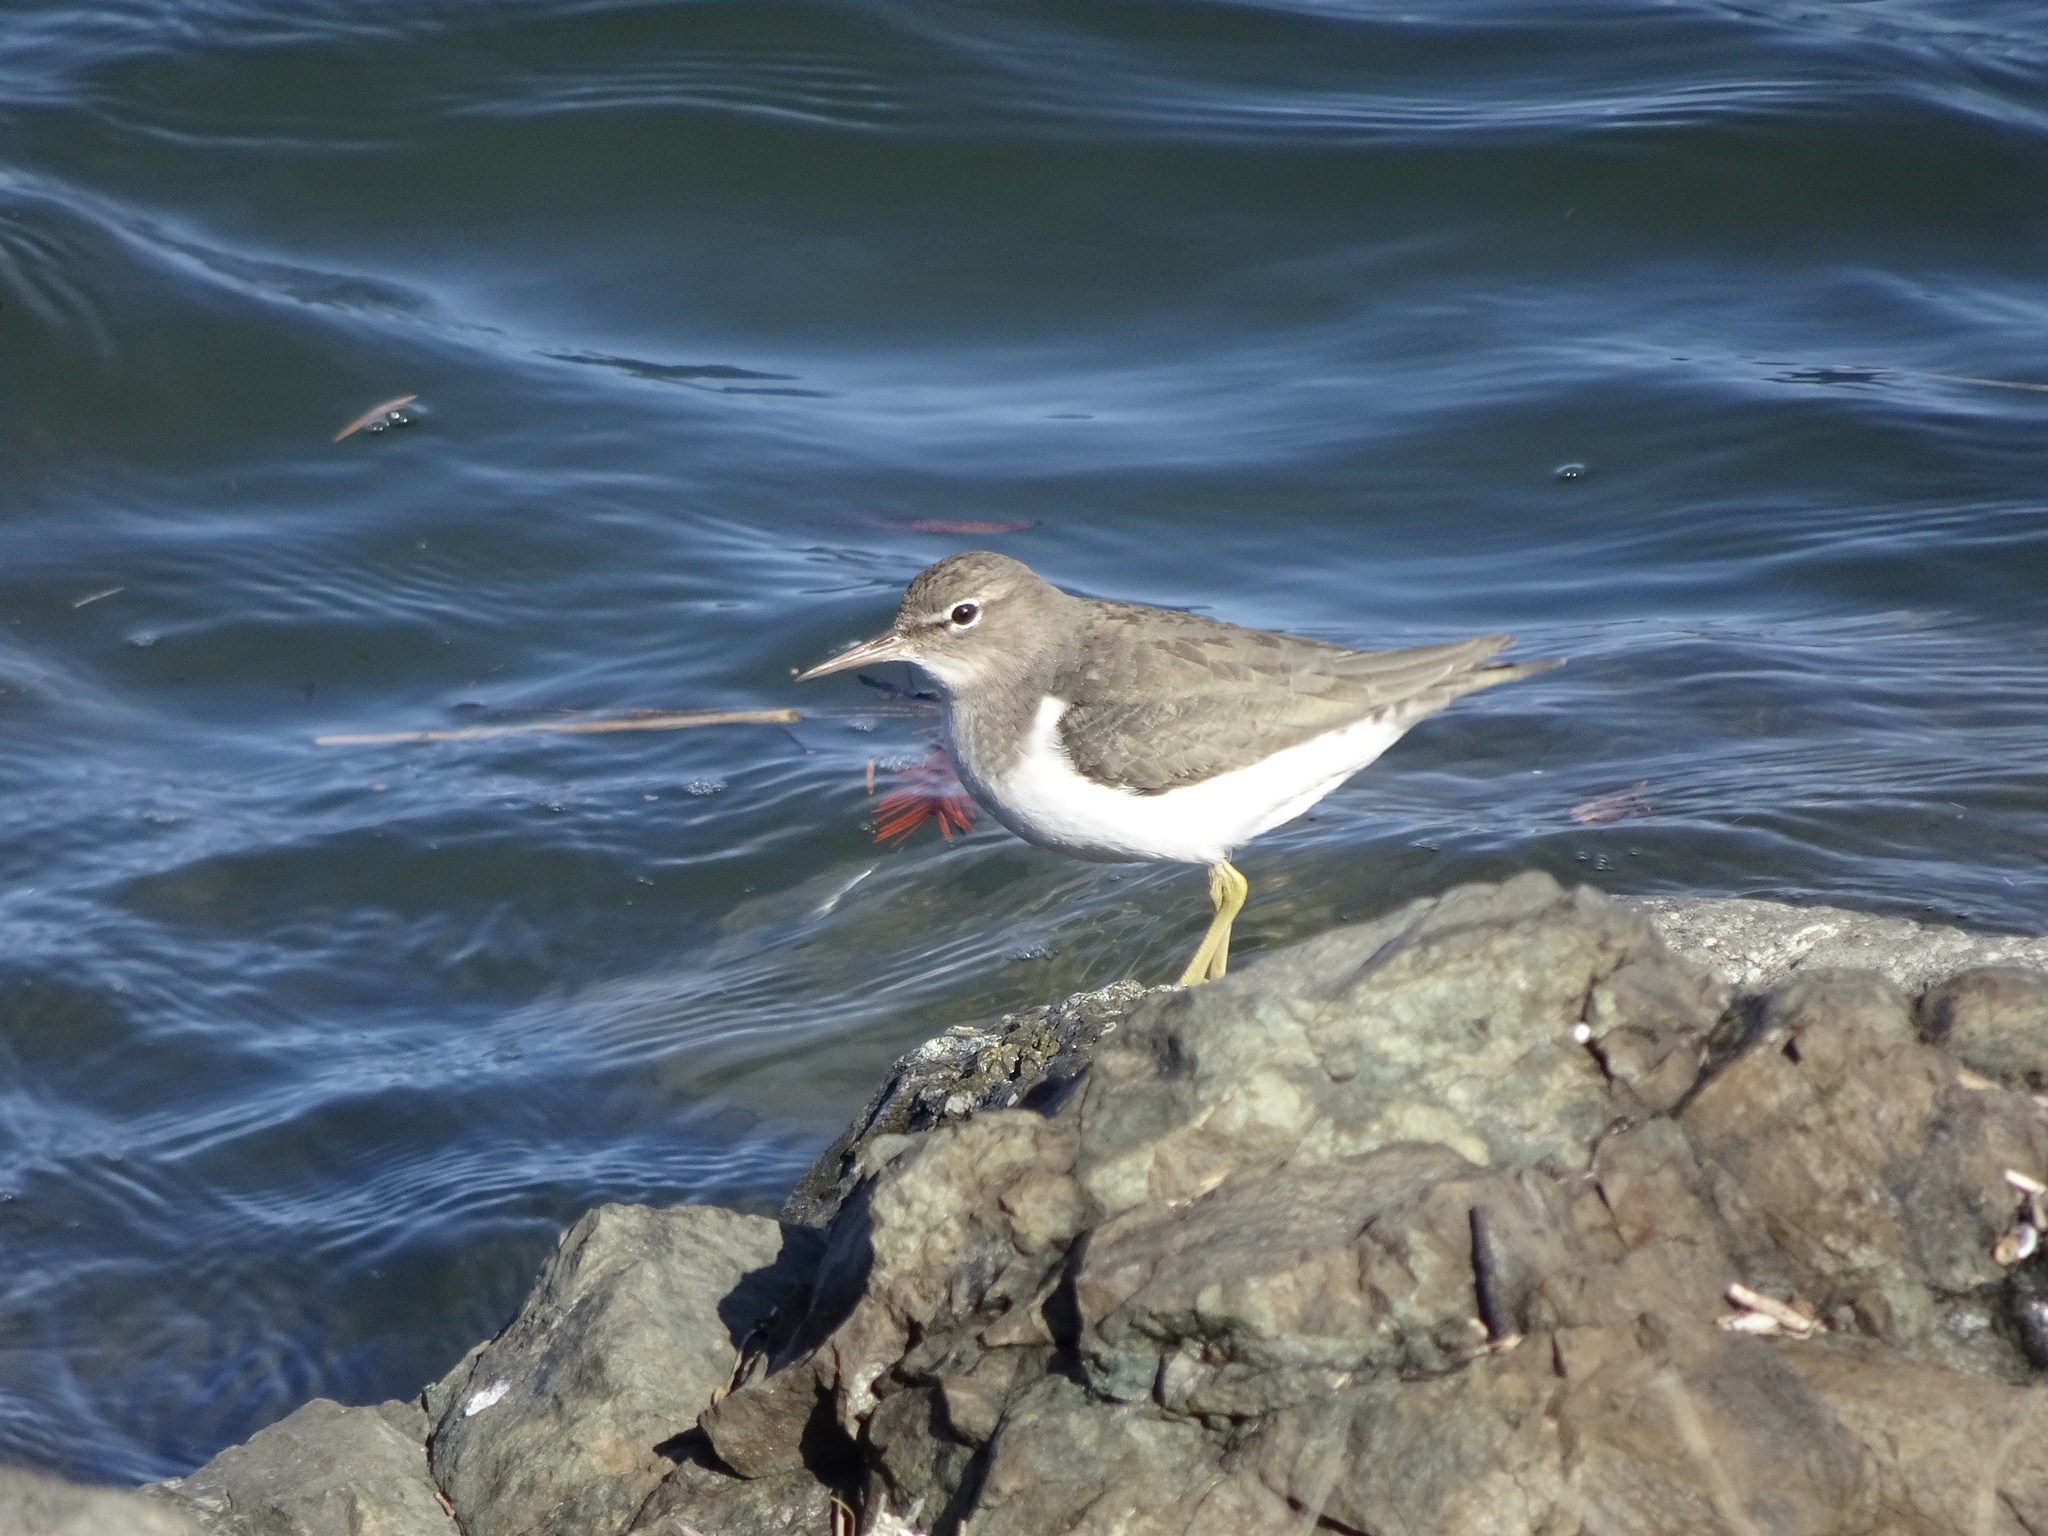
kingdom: Animalia
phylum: Chordata
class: Aves
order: Charadriiformes
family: Scolopacidae
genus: Actitis
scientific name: Actitis macularius
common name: Spotted sandpiper
